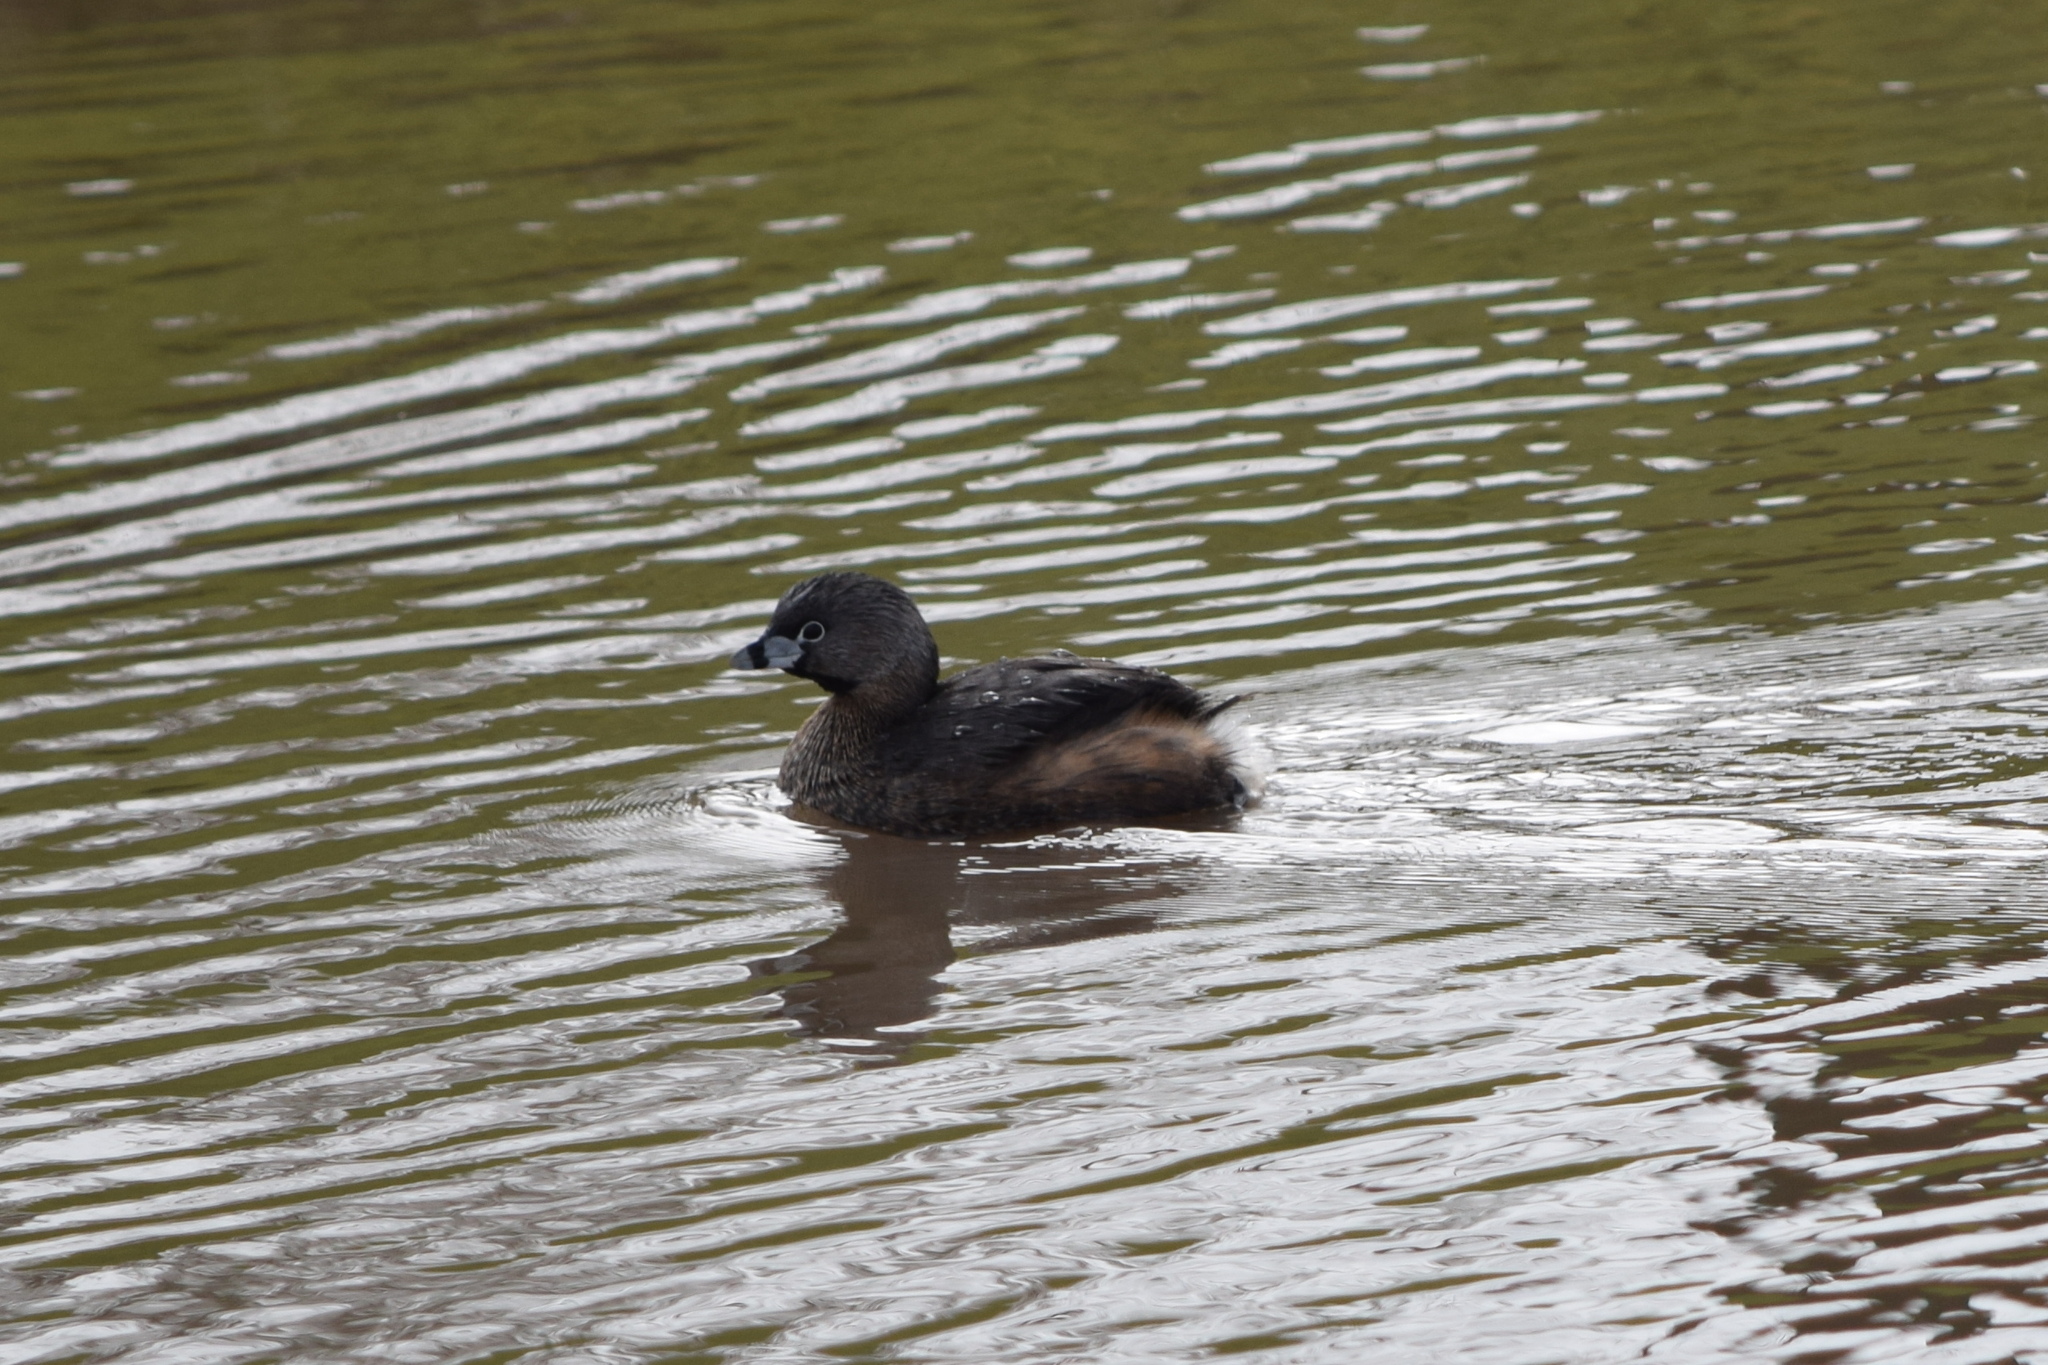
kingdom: Animalia
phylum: Chordata
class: Aves
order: Podicipediformes
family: Podicipedidae
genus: Podilymbus
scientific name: Podilymbus podiceps
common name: Pied-billed grebe
